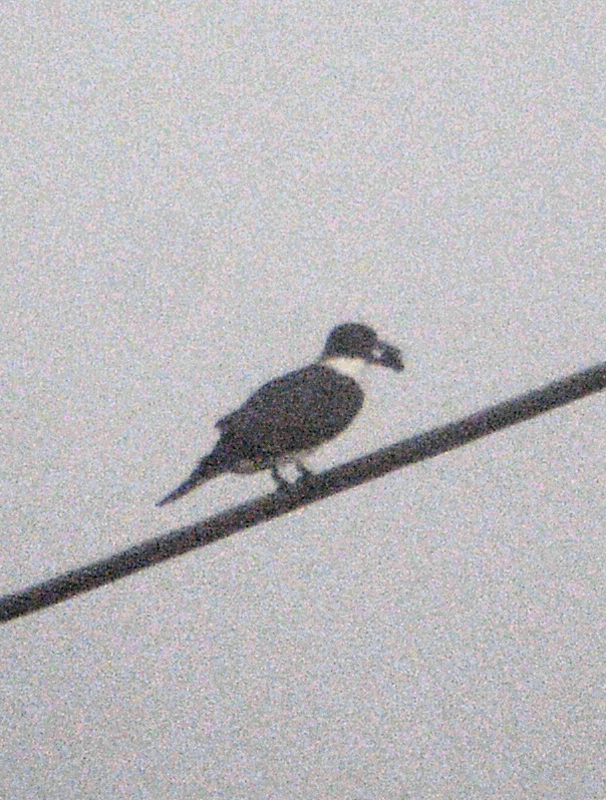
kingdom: Animalia
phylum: Chordata
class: Aves
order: Coraciiformes
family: Alcedinidae
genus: Megaceryle
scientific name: Megaceryle alcyon
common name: Belted kingfisher
